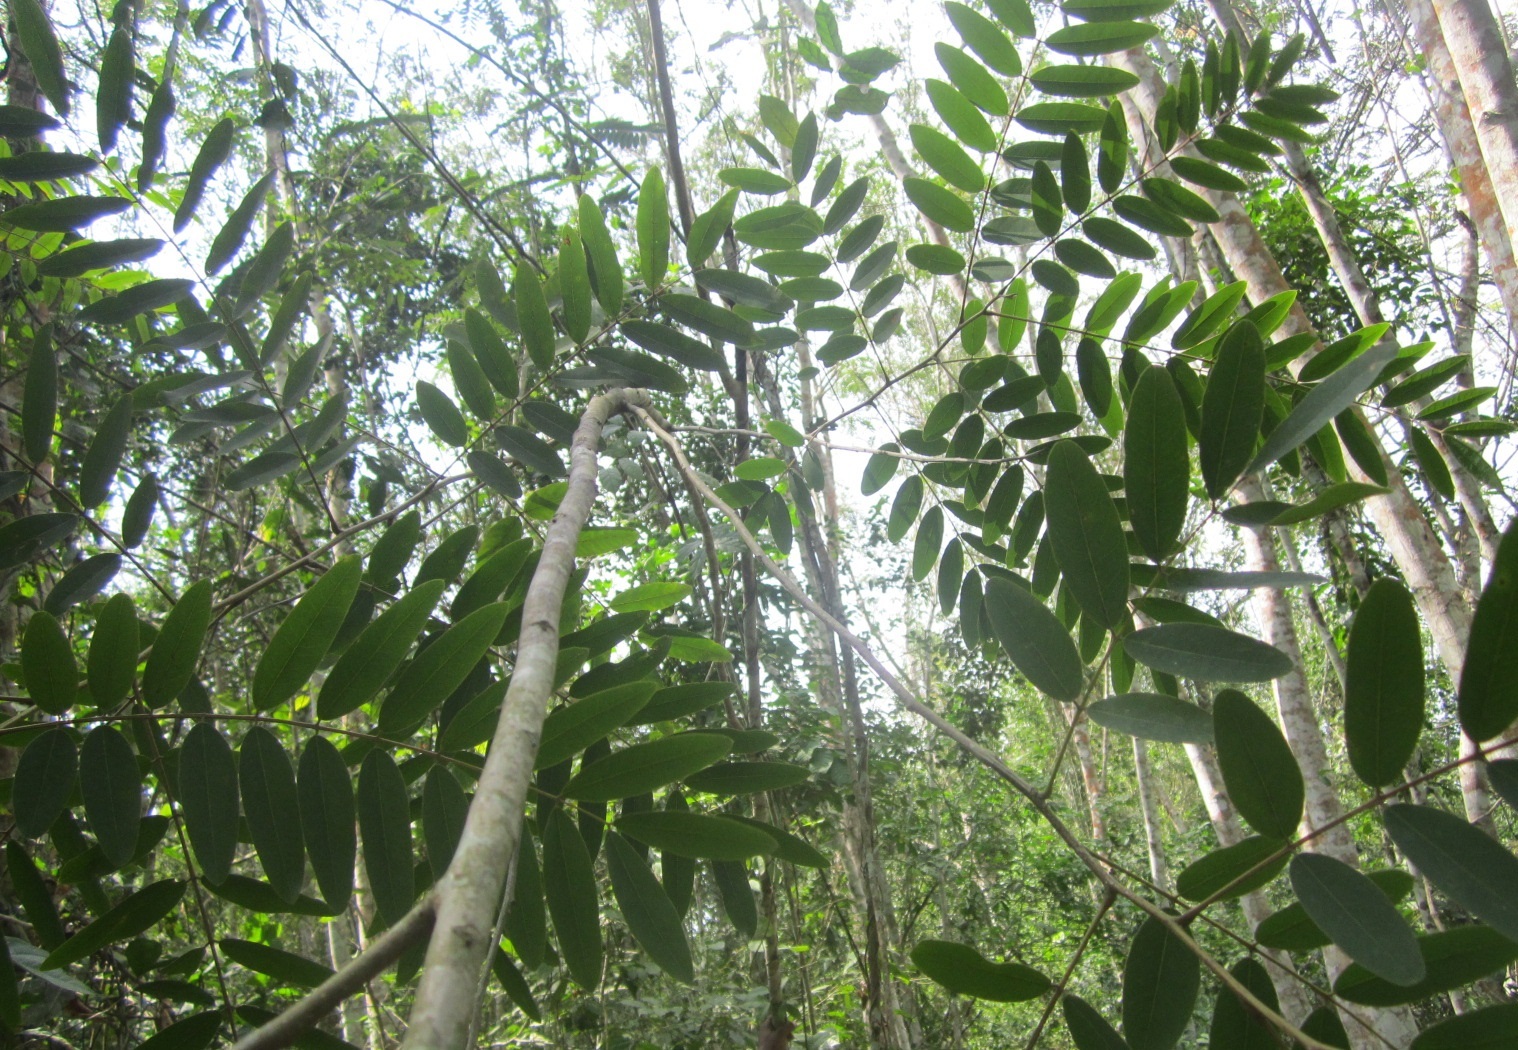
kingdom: Plantae
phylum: Tracheophyta
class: Magnoliopsida
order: Fabales
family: Fabaceae
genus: Senna
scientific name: Senna siamea
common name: Siamese cassia
